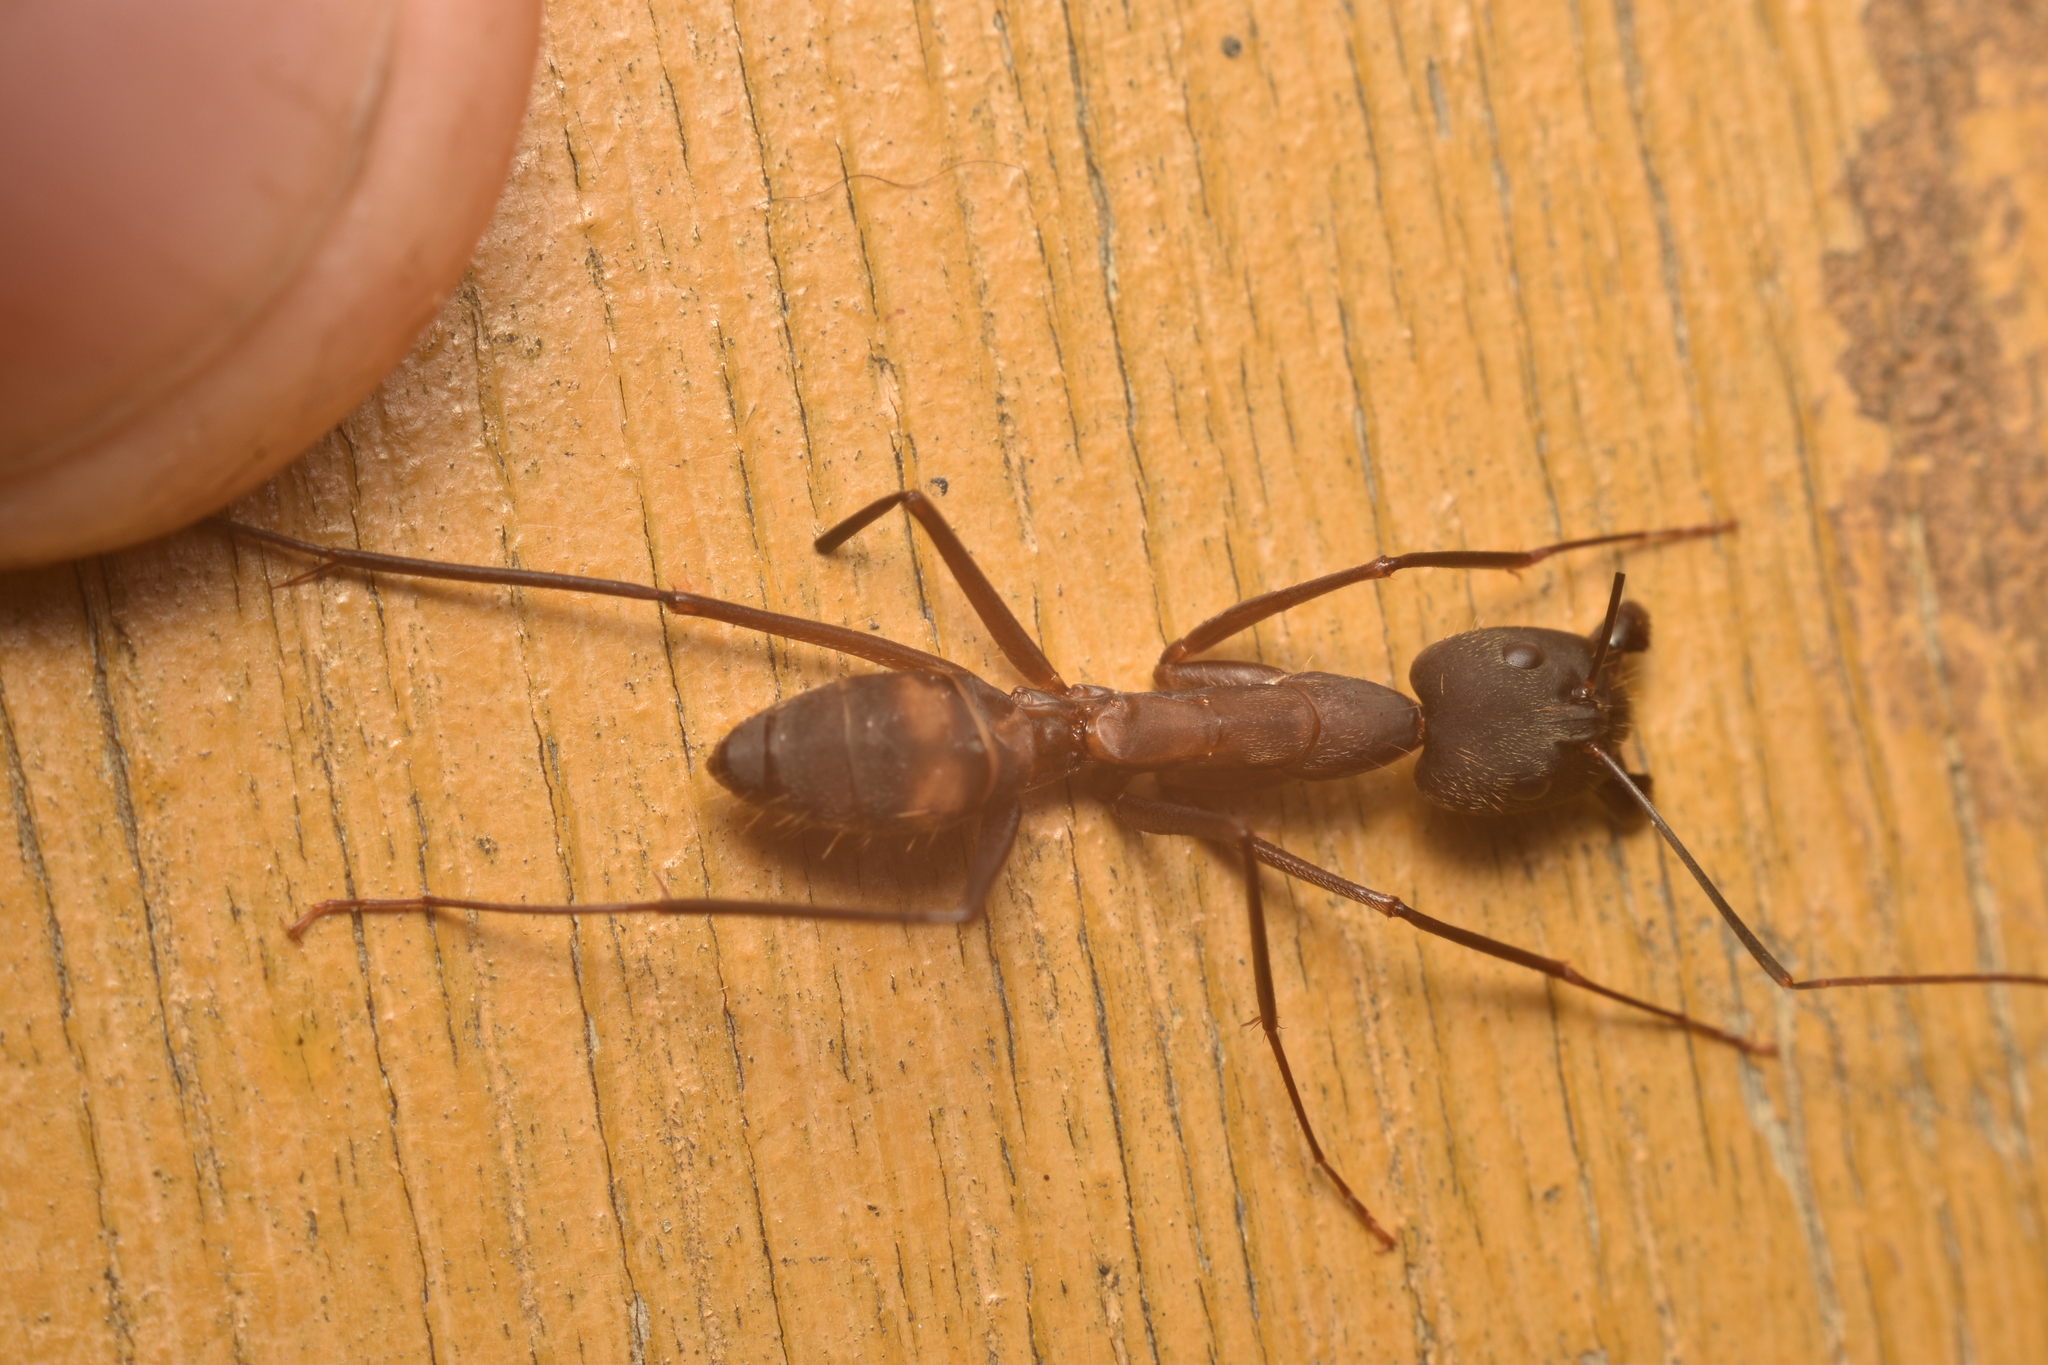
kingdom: Animalia
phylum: Arthropoda
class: Insecta
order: Hymenoptera
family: Formicidae
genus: Camponotus
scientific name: Camponotus amoris
